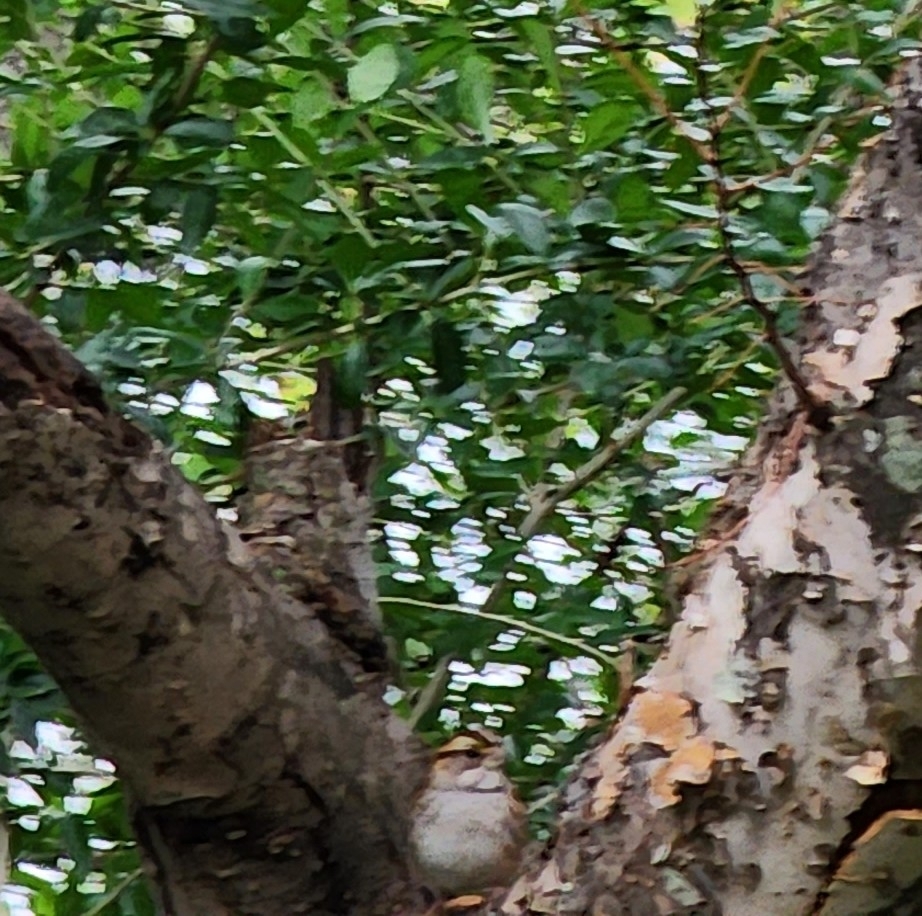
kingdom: Animalia
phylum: Chordata
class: Aves
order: Passeriformes
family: Passerellidae
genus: Zonotrichia
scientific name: Zonotrichia albicollis
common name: White-throated sparrow
